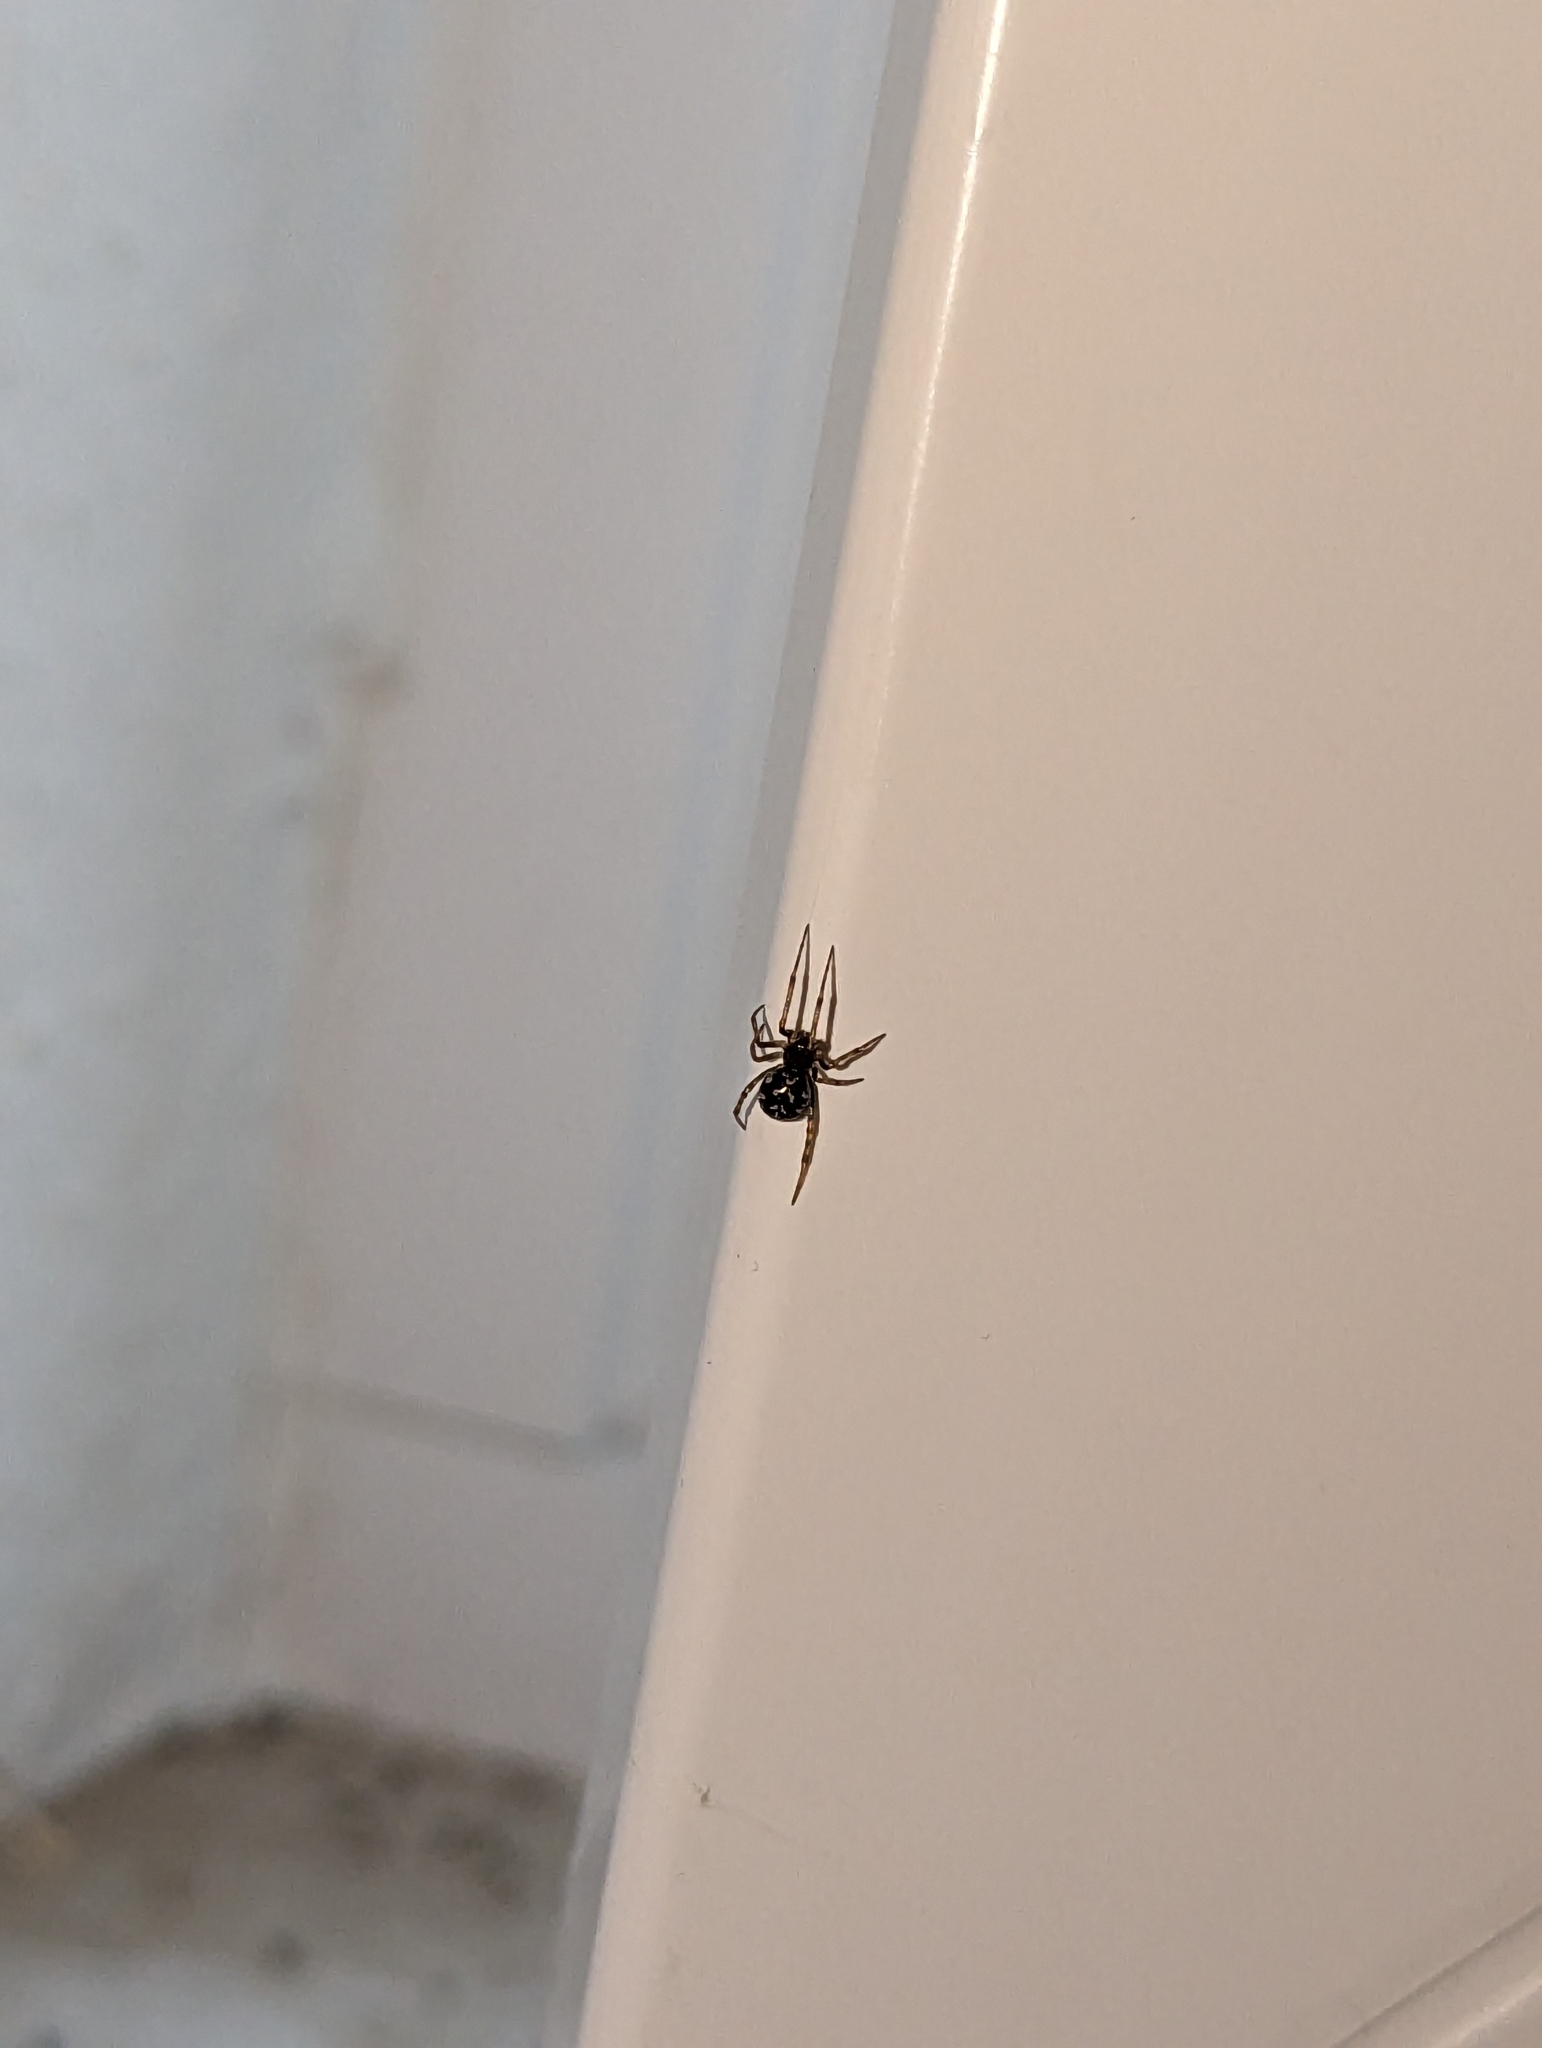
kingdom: Animalia
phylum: Arthropoda
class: Arachnida
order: Araneae
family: Theridiidae
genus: Steatoda
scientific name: Steatoda triangulosa
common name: Triangulate bud spider
